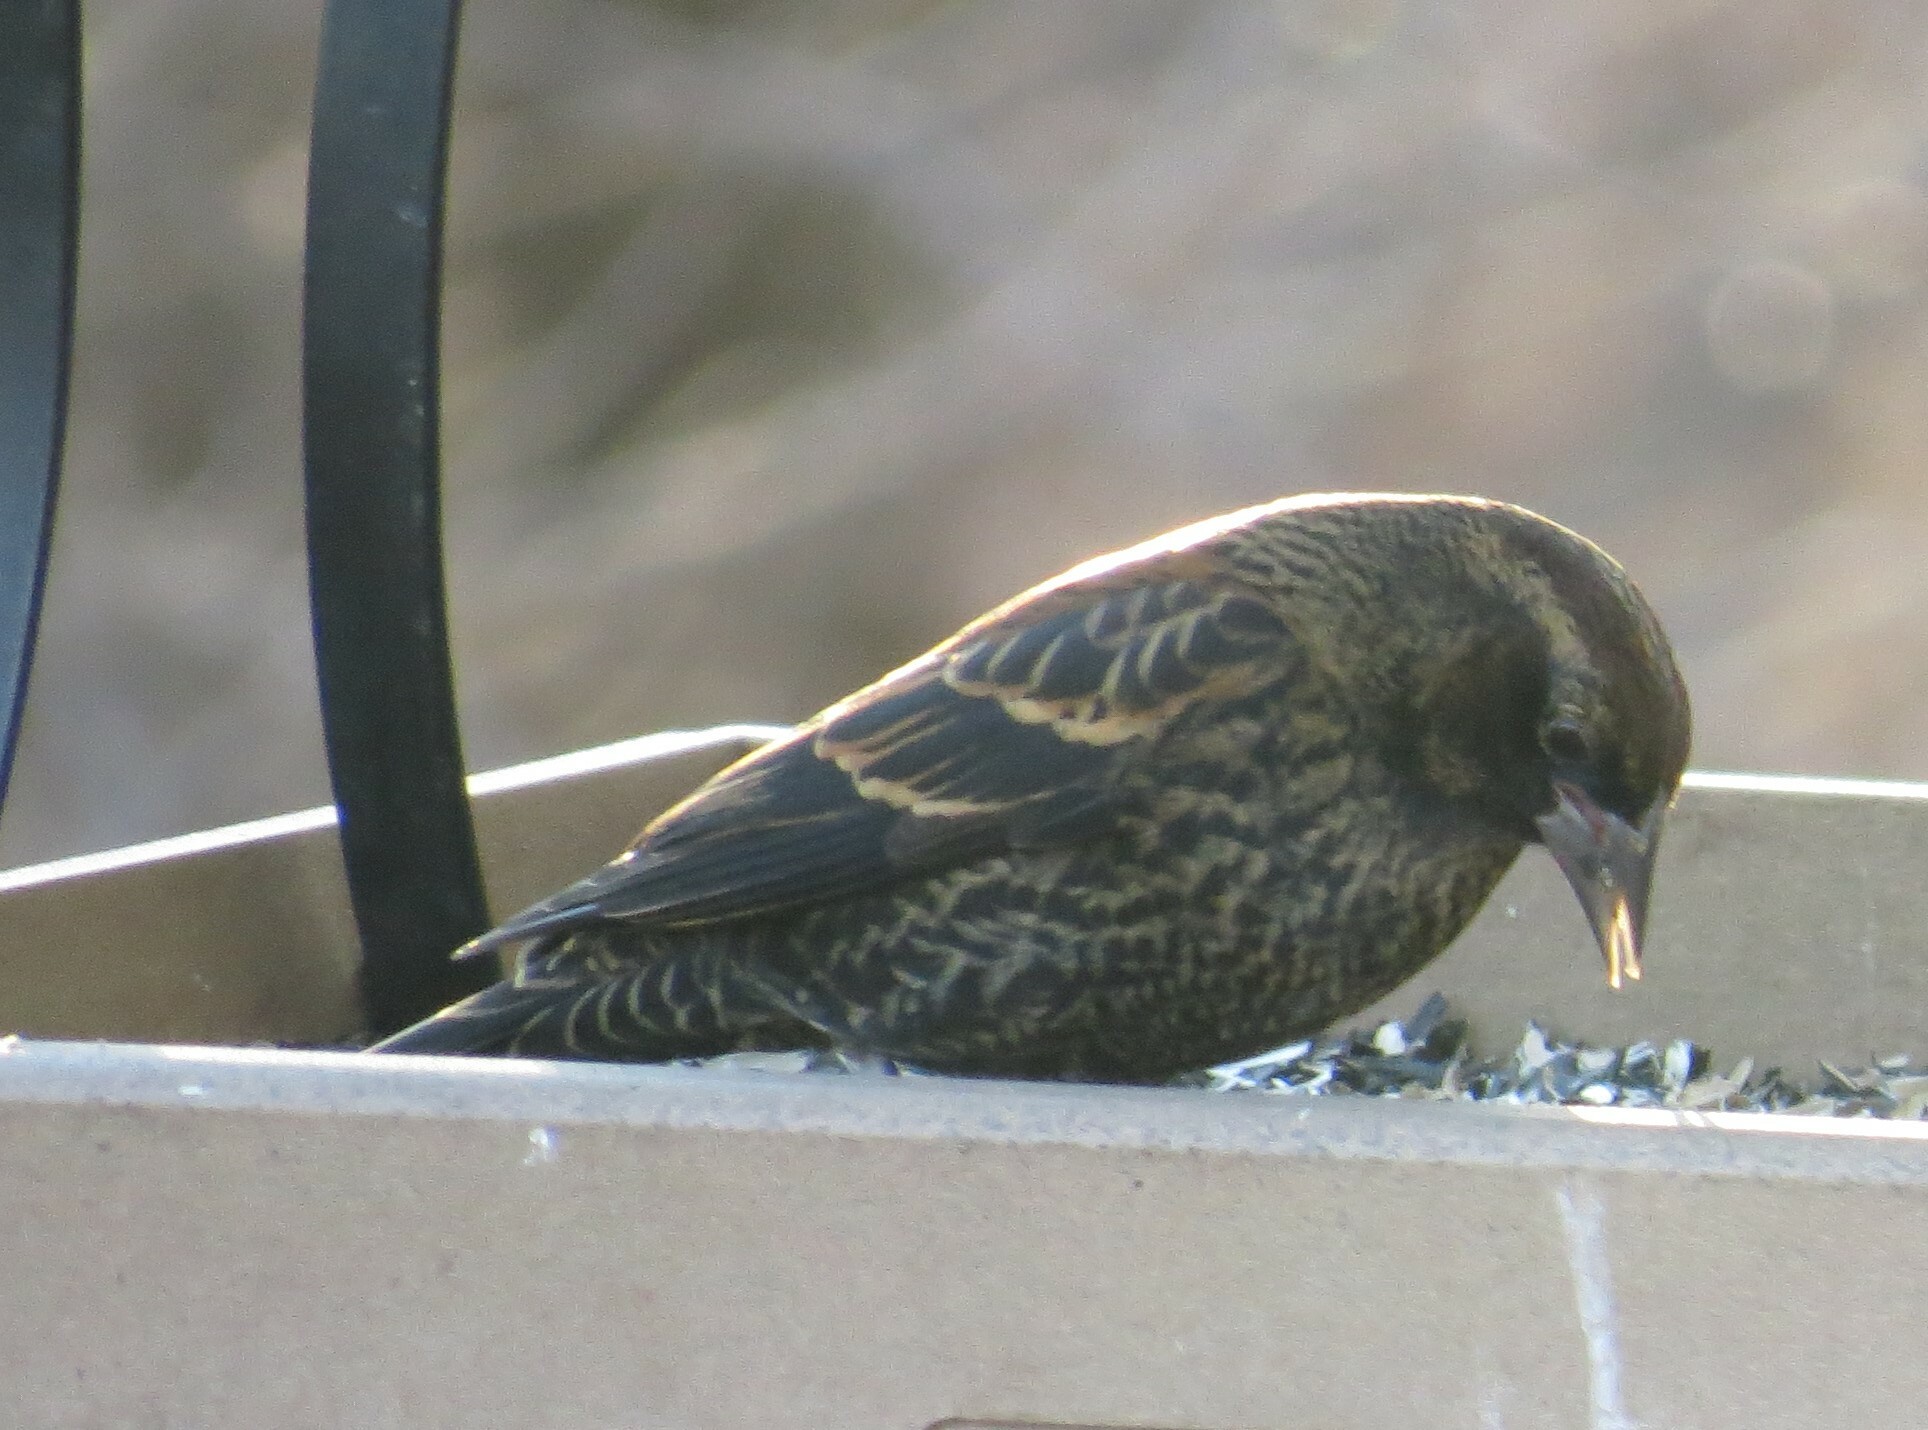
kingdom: Animalia
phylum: Chordata
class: Aves
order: Passeriformes
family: Icteridae
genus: Agelaius
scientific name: Agelaius phoeniceus
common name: Red-winged blackbird
